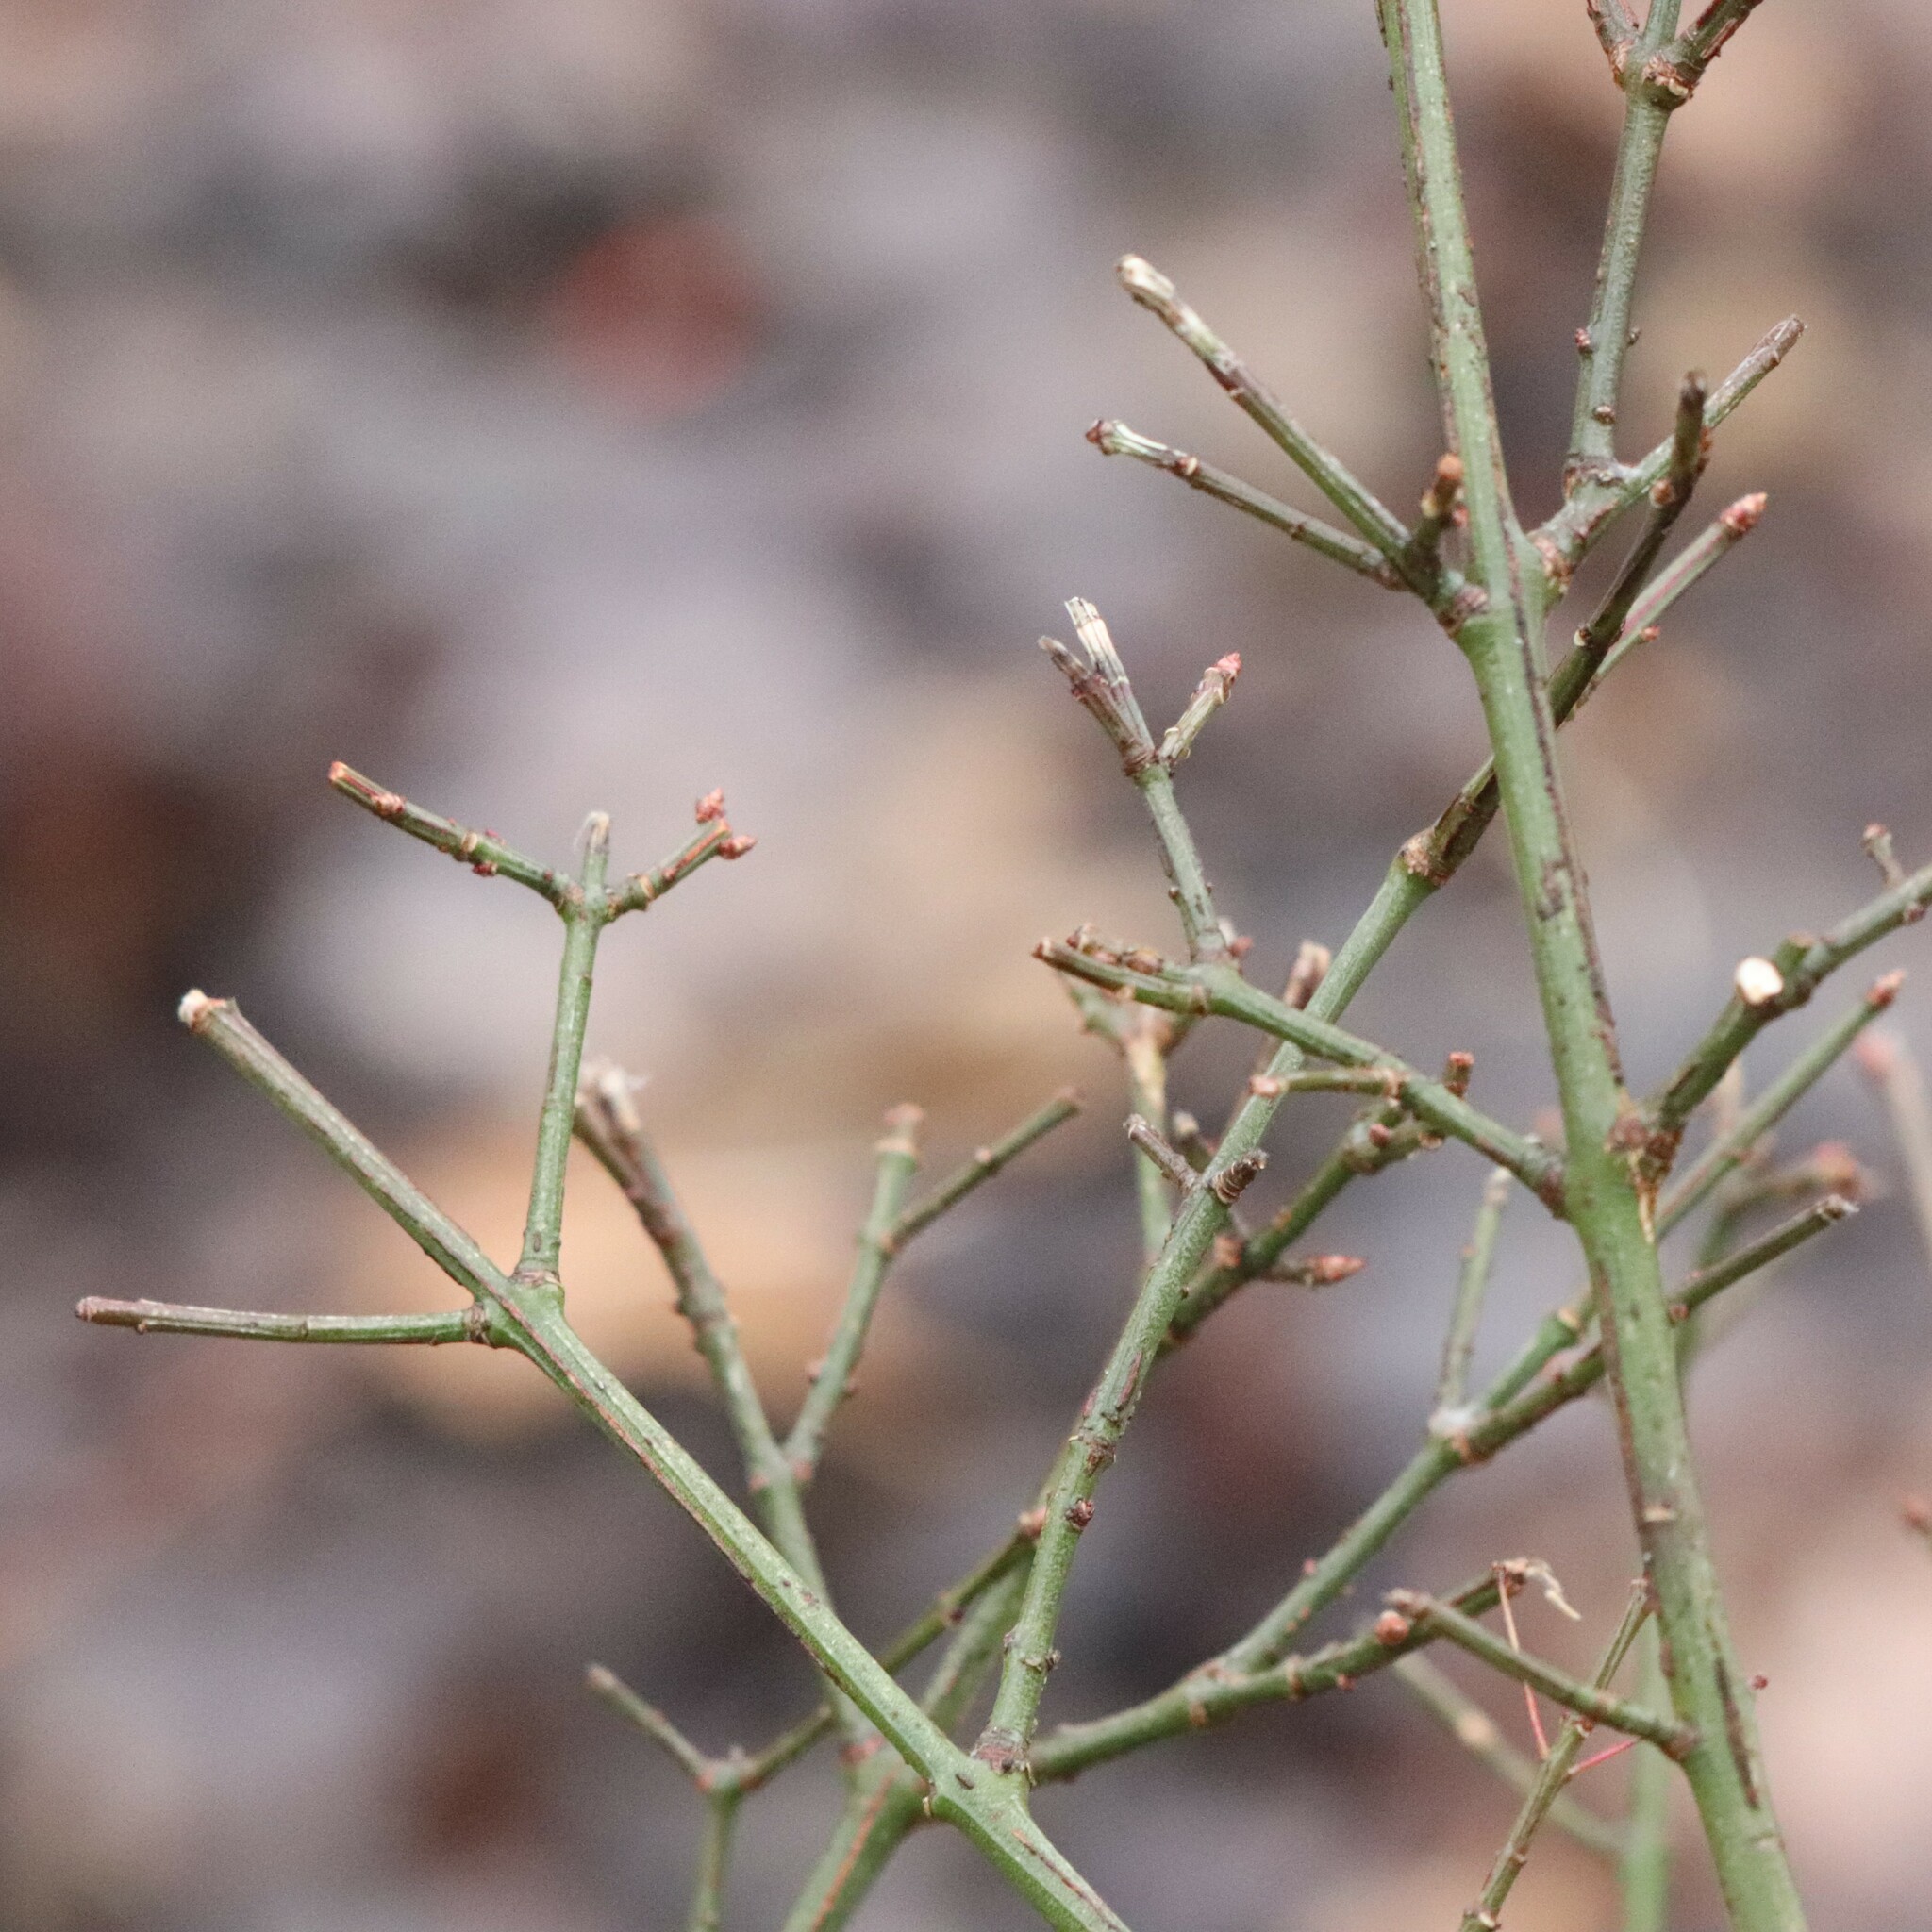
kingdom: Plantae
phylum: Tracheophyta
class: Magnoliopsida
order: Celastrales
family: Celastraceae
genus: Euonymus
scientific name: Euonymus alatus
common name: Winged euonymus
